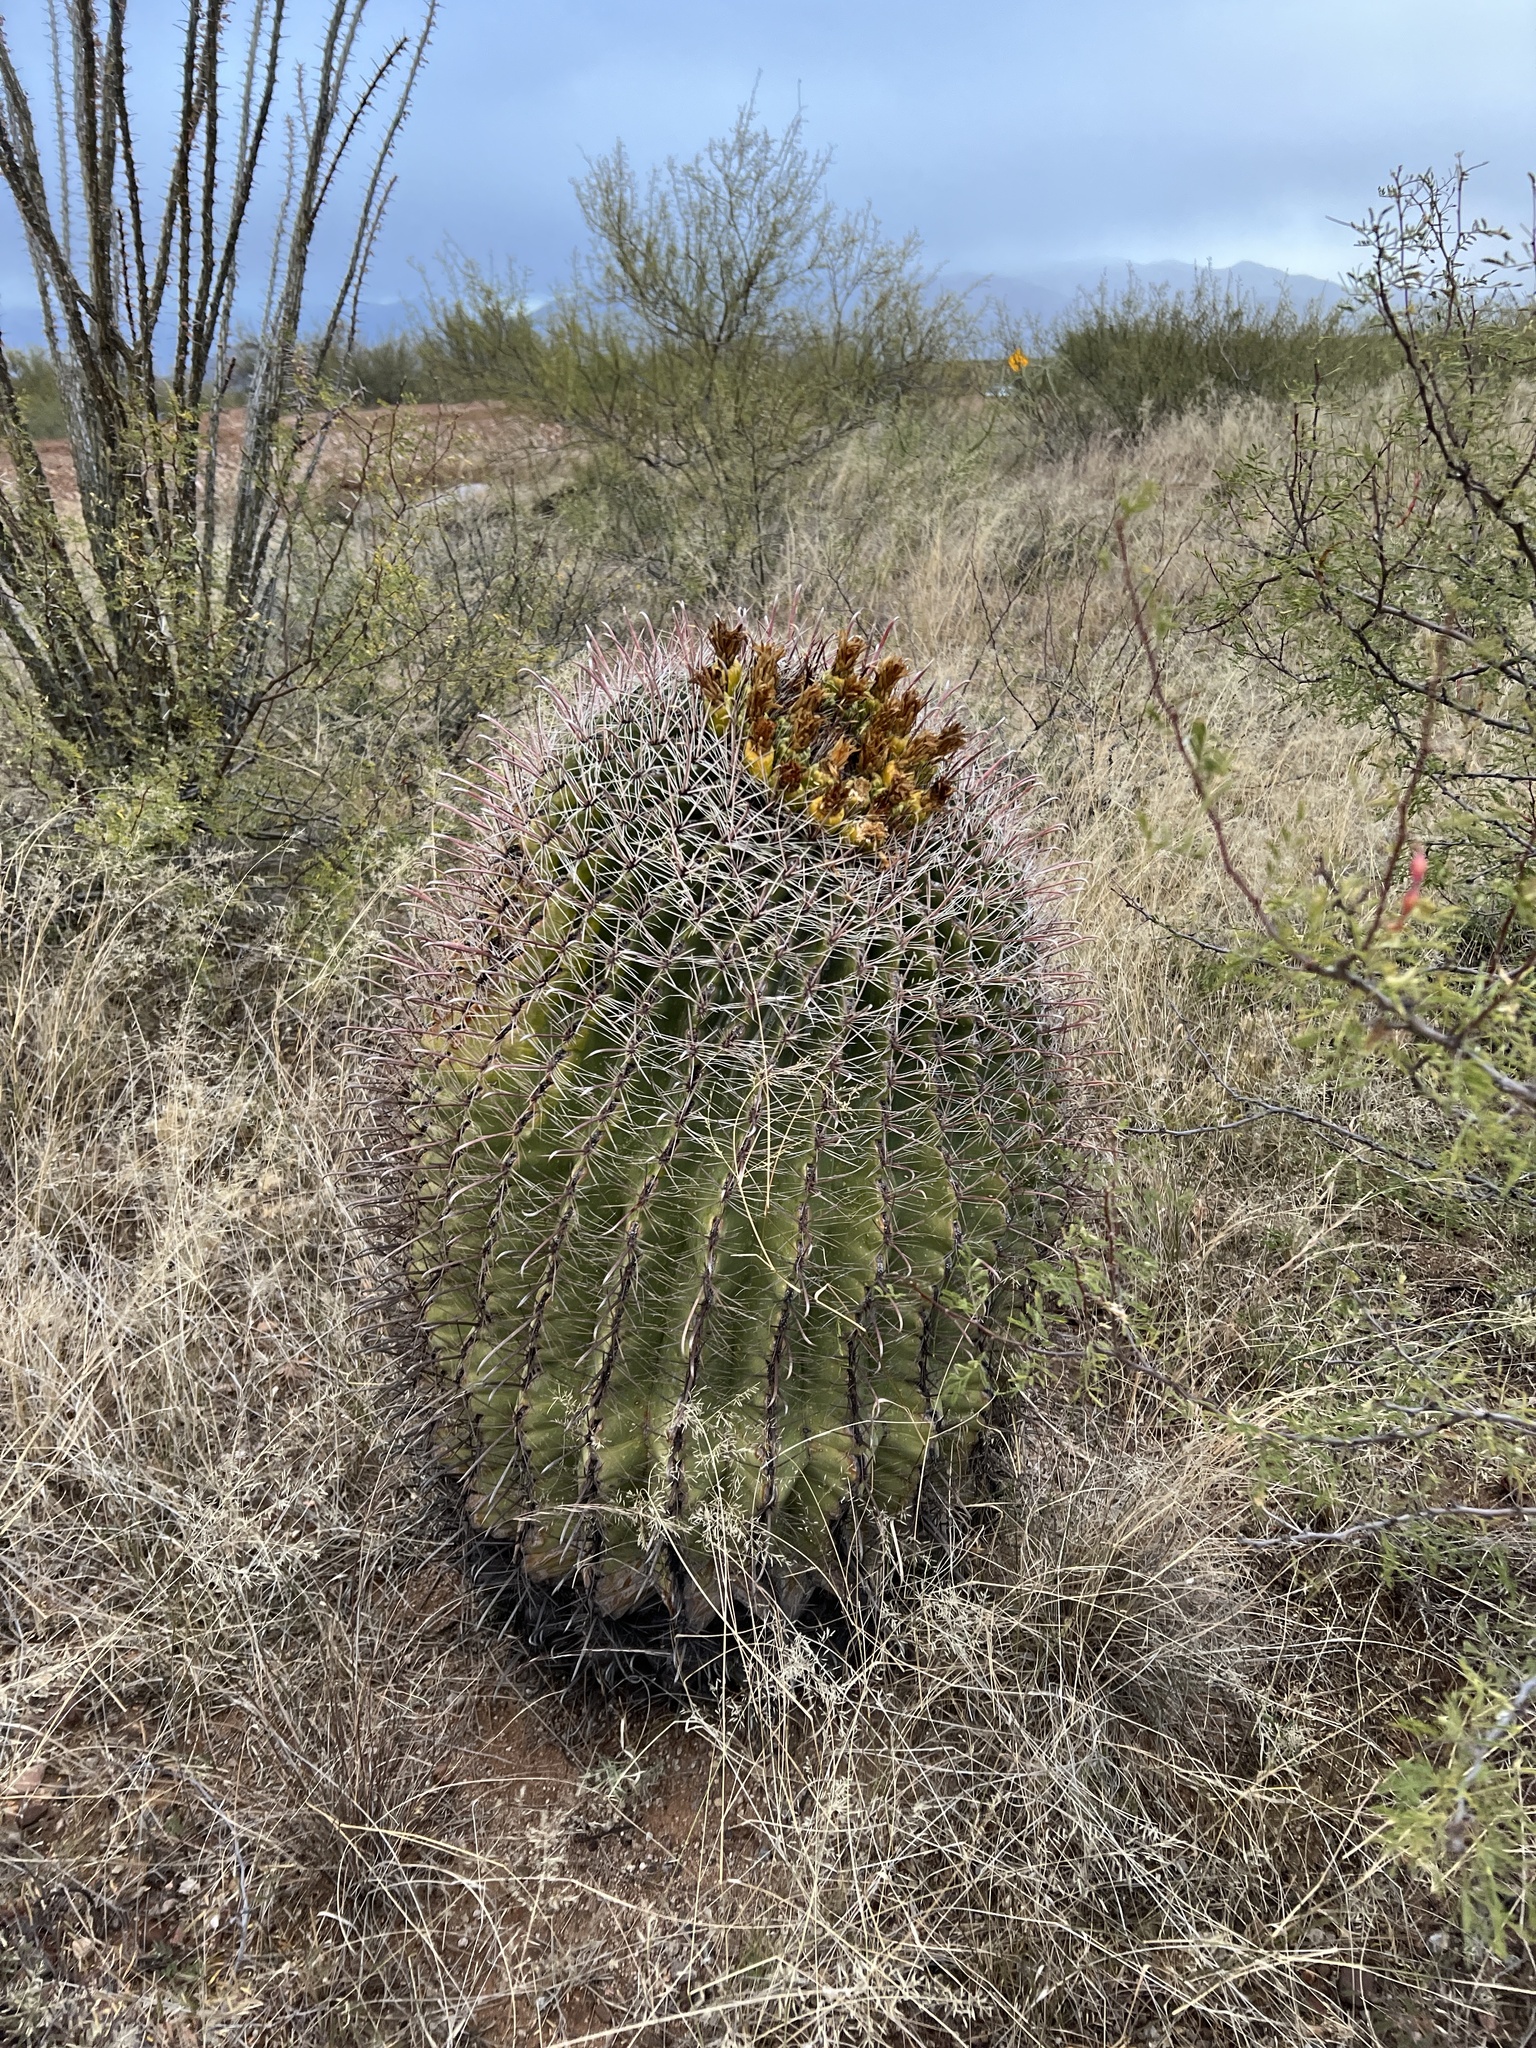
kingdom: Plantae
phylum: Tracheophyta
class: Magnoliopsida
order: Caryophyllales
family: Cactaceae
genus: Ferocactus
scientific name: Ferocactus wislizeni
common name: Candy barrel cactus
